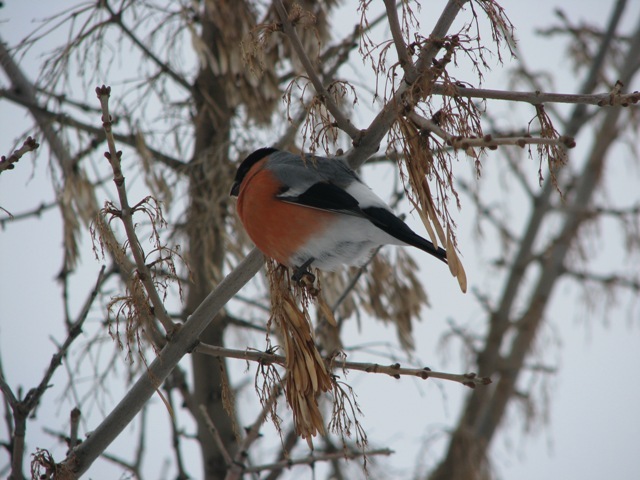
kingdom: Animalia
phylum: Chordata
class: Aves
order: Passeriformes
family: Fringillidae
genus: Pyrrhula
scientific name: Pyrrhula pyrrhula
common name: Eurasian bullfinch
